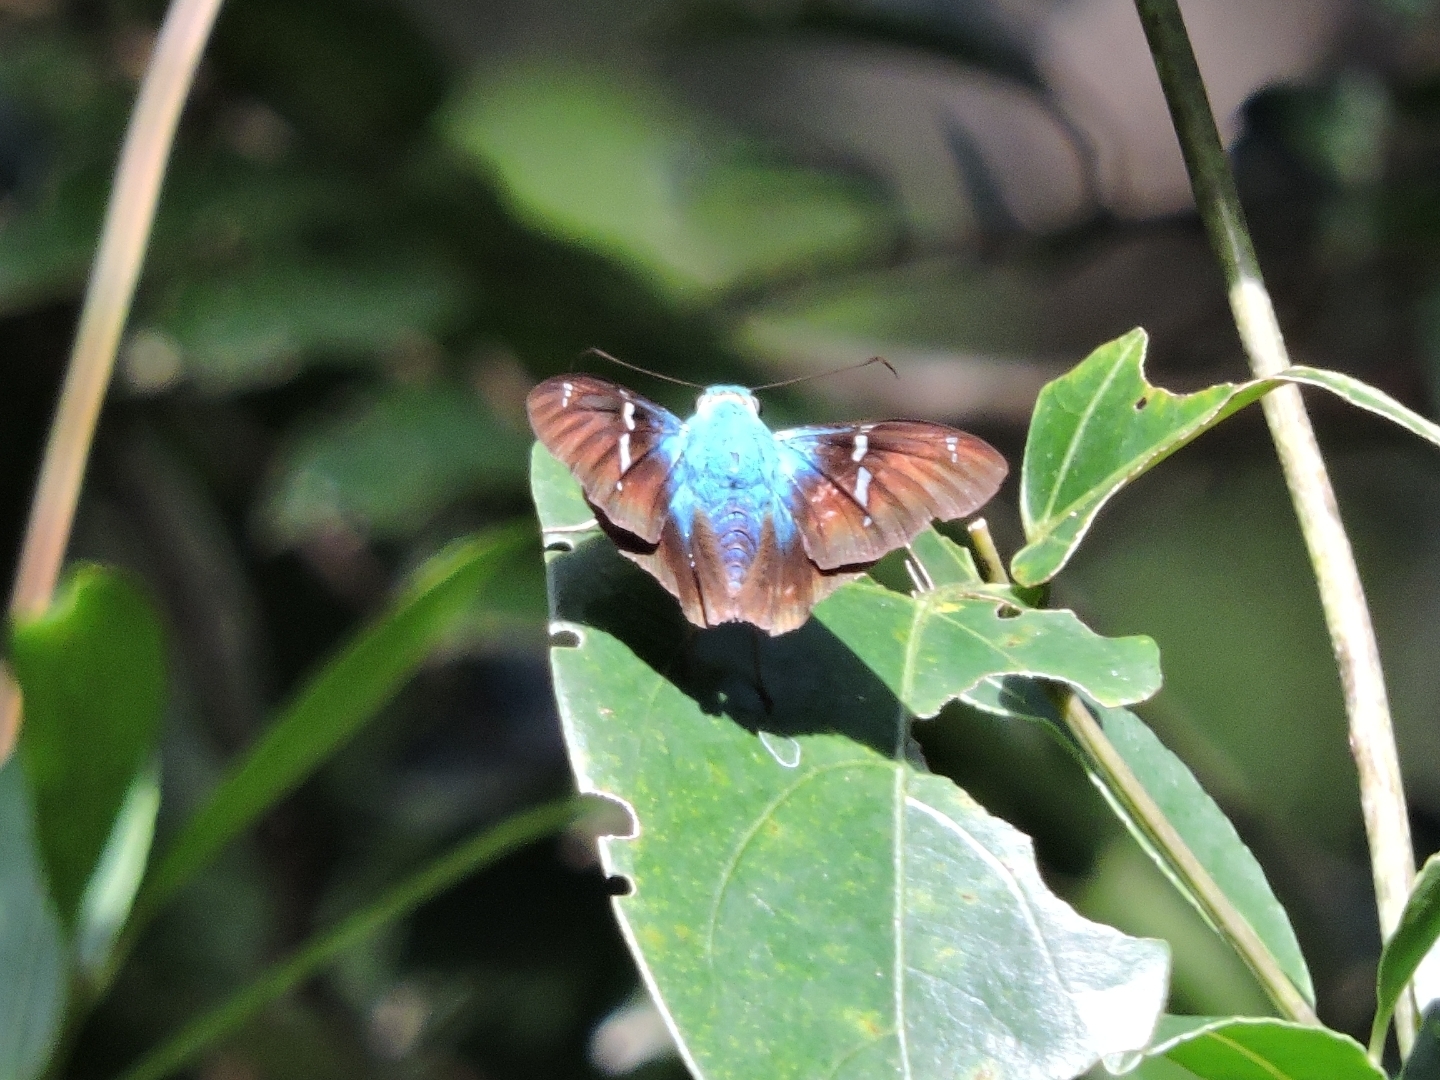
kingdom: Animalia
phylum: Arthropoda
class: Insecta
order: Lepidoptera
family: Hesperiidae
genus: Astraptes
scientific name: Astraptes fulgerator
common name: Two-barred flasher
